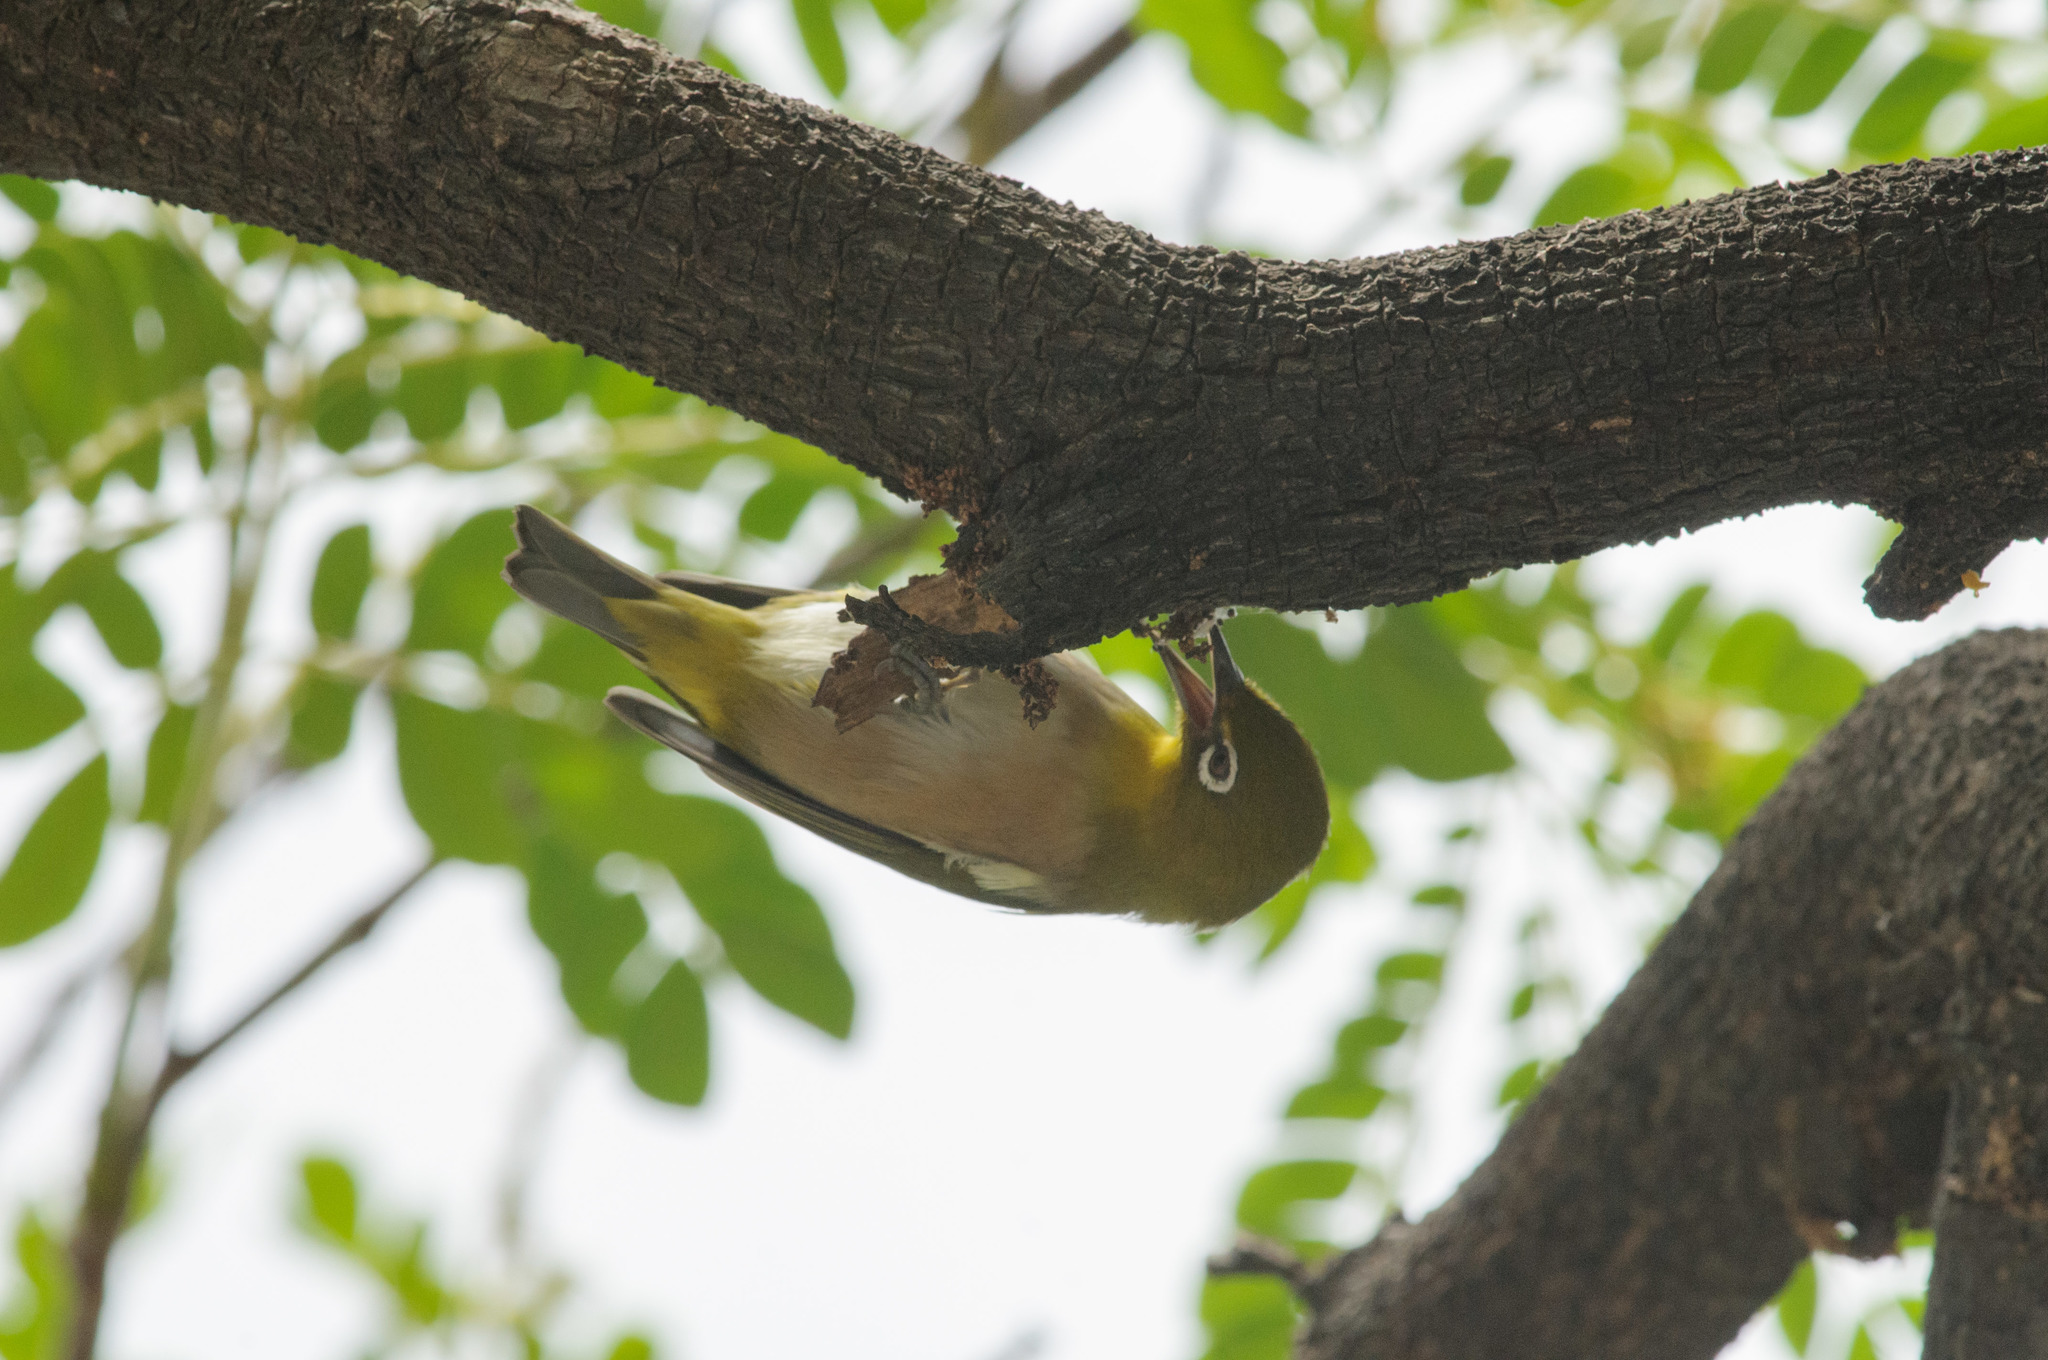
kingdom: Animalia
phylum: Chordata
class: Aves
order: Passeriformes
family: Zosteropidae
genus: Zosterops
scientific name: Zosterops japonicus
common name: Japanese white-eye
